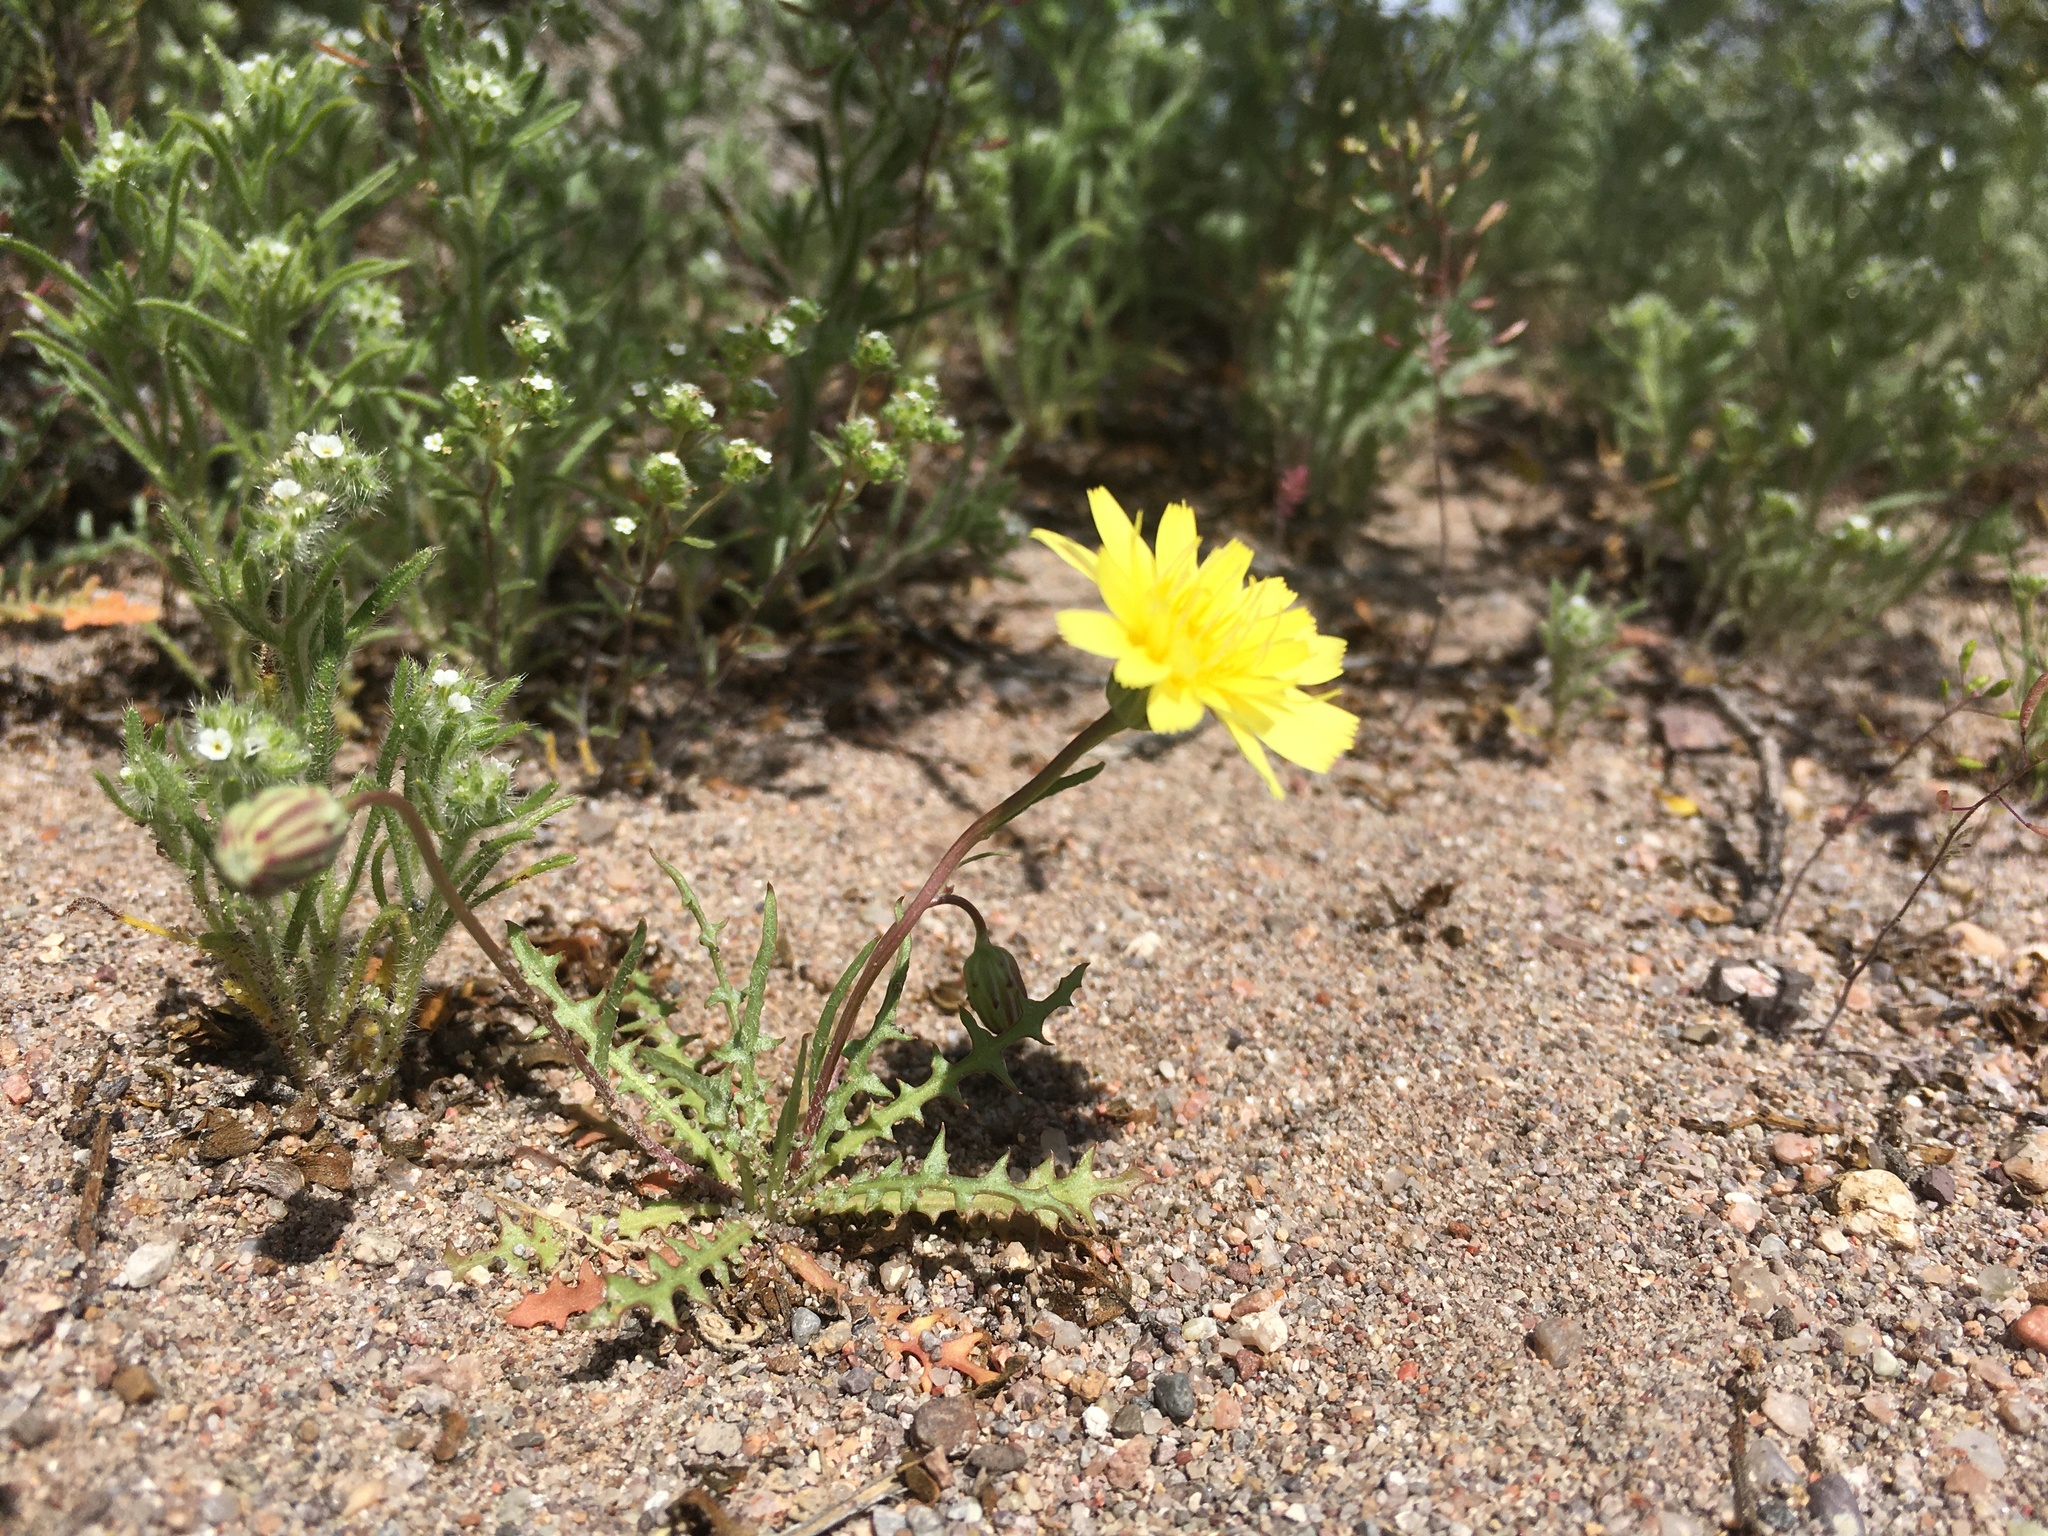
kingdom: Plantae
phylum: Tracheophyta
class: Magnoliopsida
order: Asterales
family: Asteraceae
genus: Malacothrix
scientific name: Malacothrix fendleri
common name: Fendler's desert-dandelion
